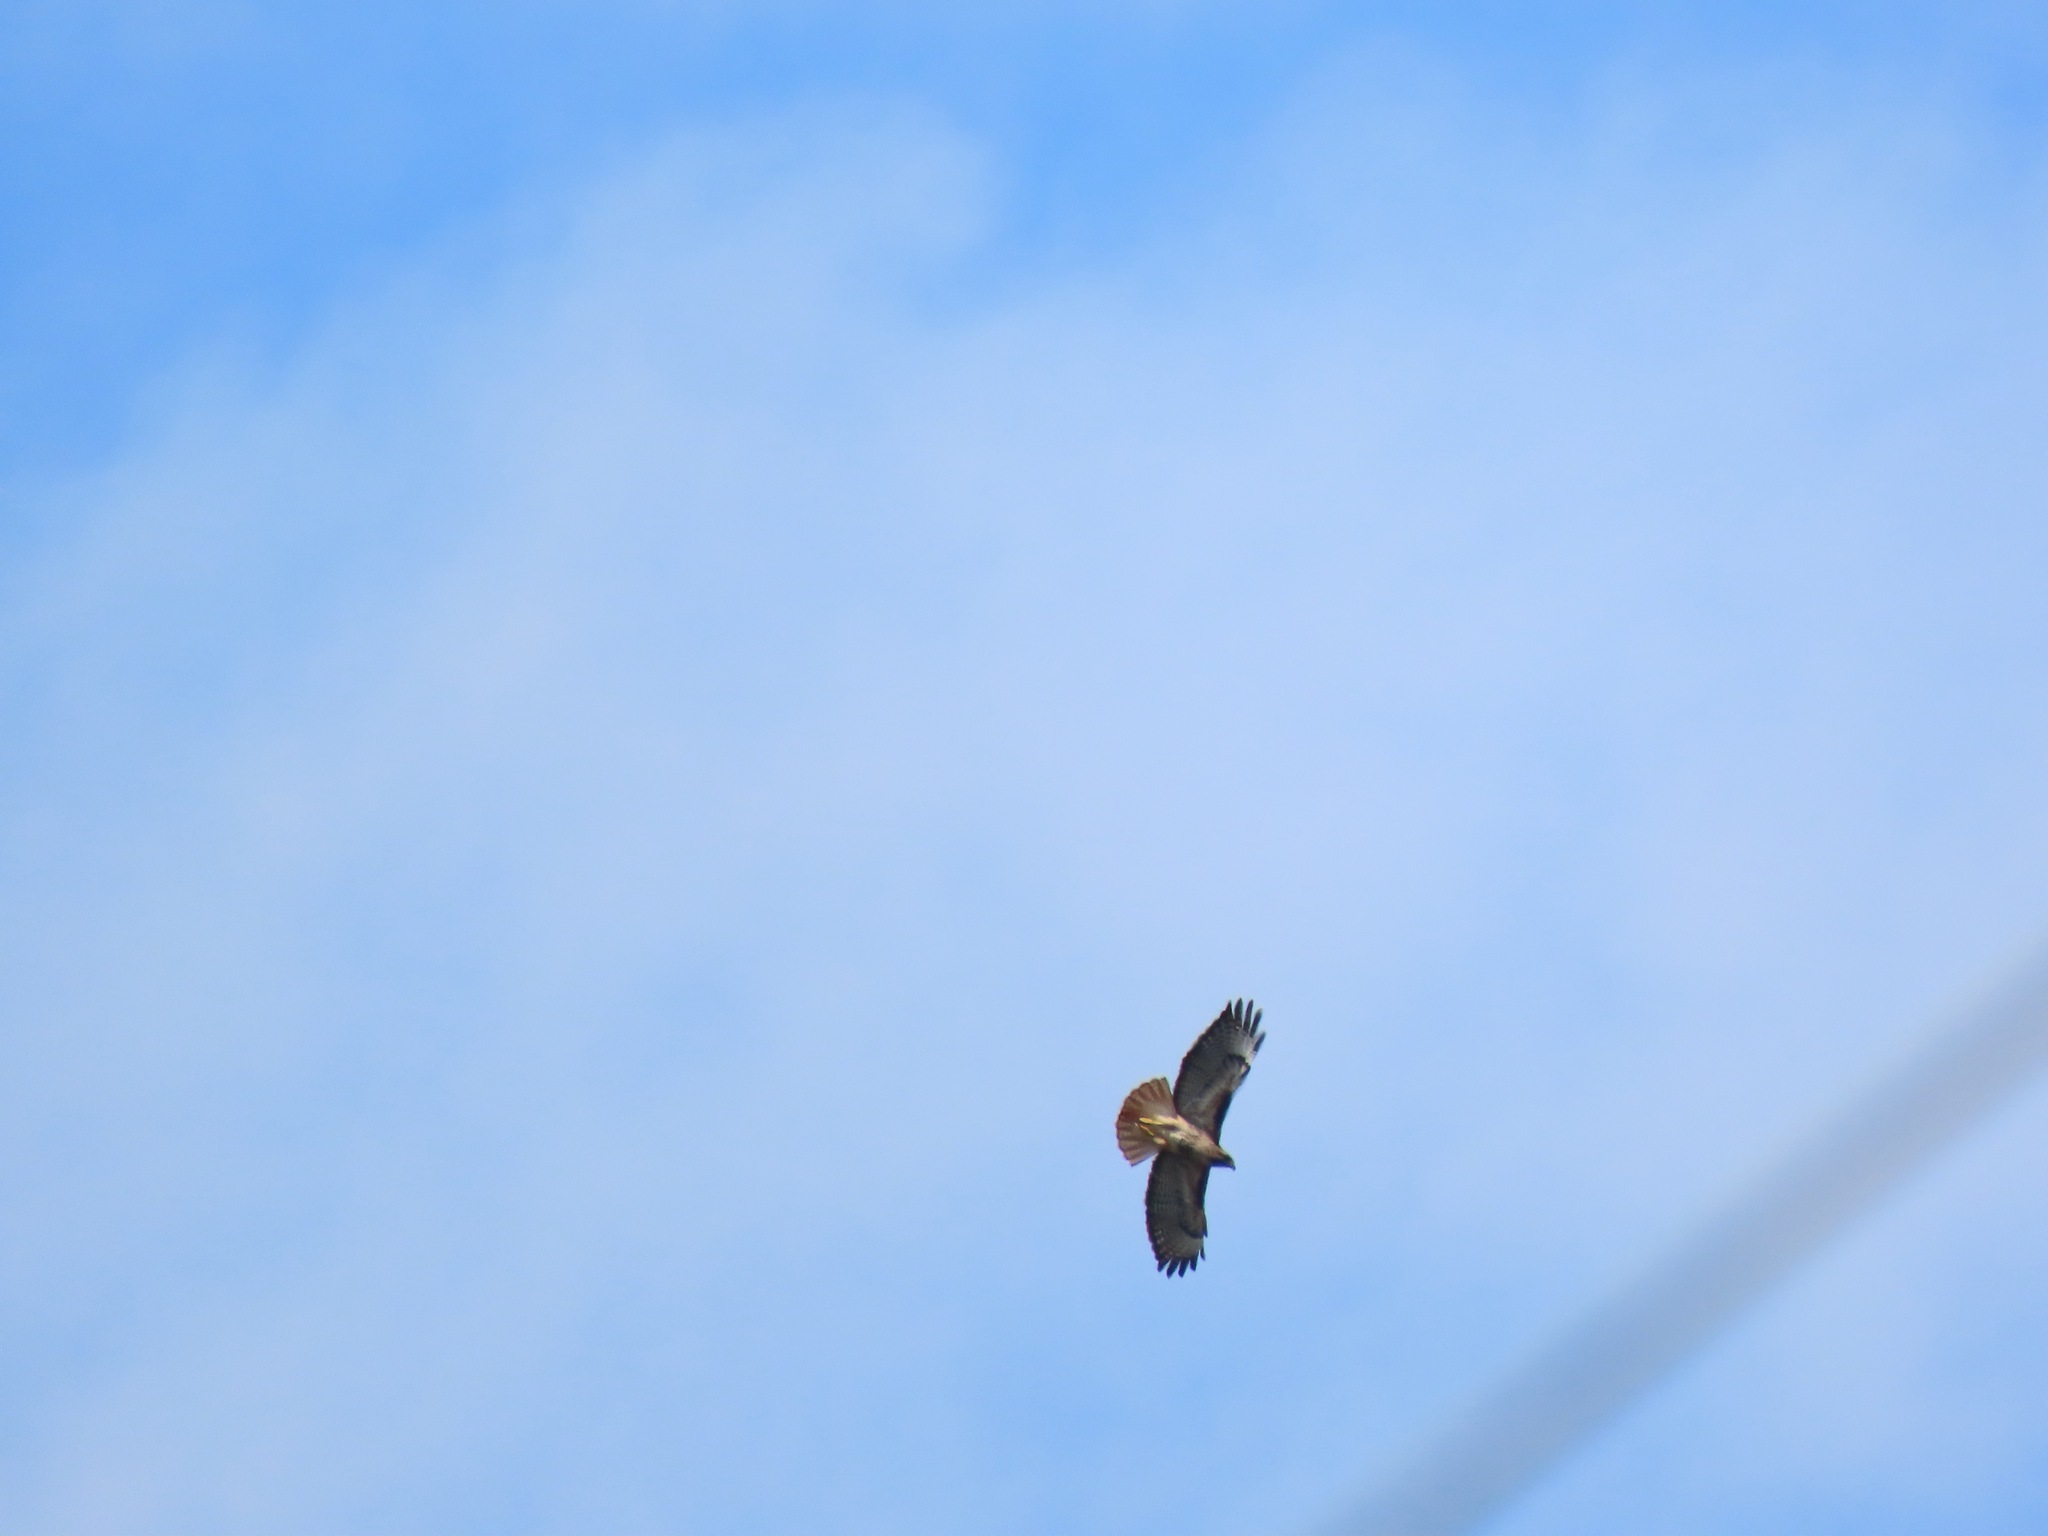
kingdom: Animalia
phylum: Chordata
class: Aves
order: Accipitriformes
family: Accipitridae
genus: Buteo
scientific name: Buteo jamaicensis
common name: Red-tailed hawk
